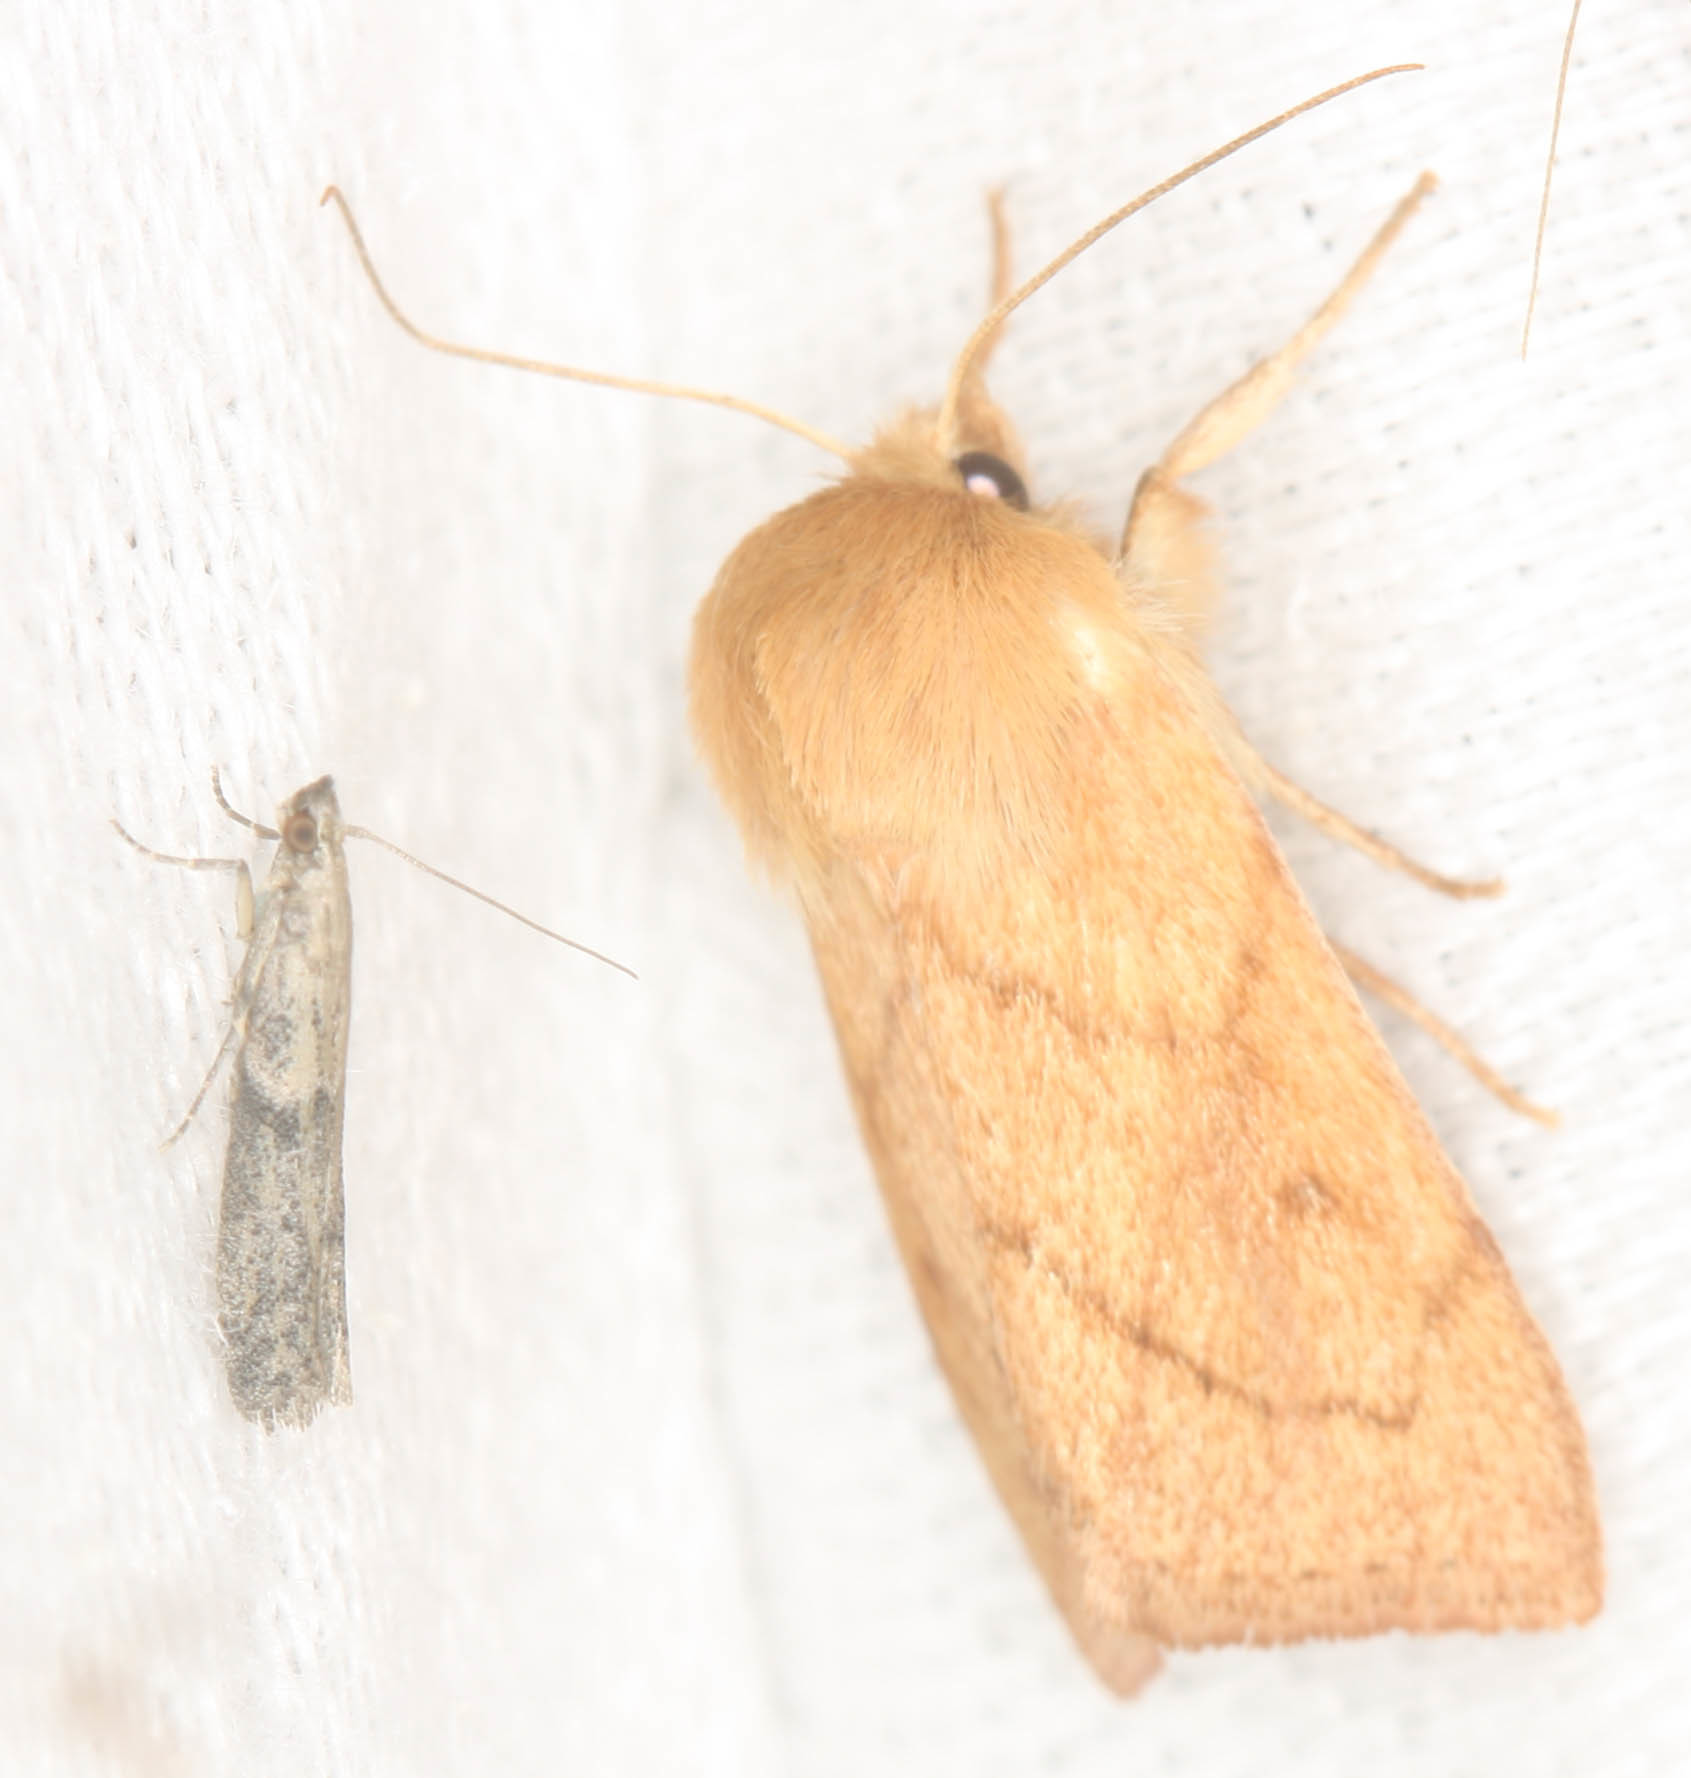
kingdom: Animalia
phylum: Arthropoda
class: Insecta
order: Lepidoptera
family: Noctuidae
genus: Zosteropoda
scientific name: Zosteropoda hirtipes
